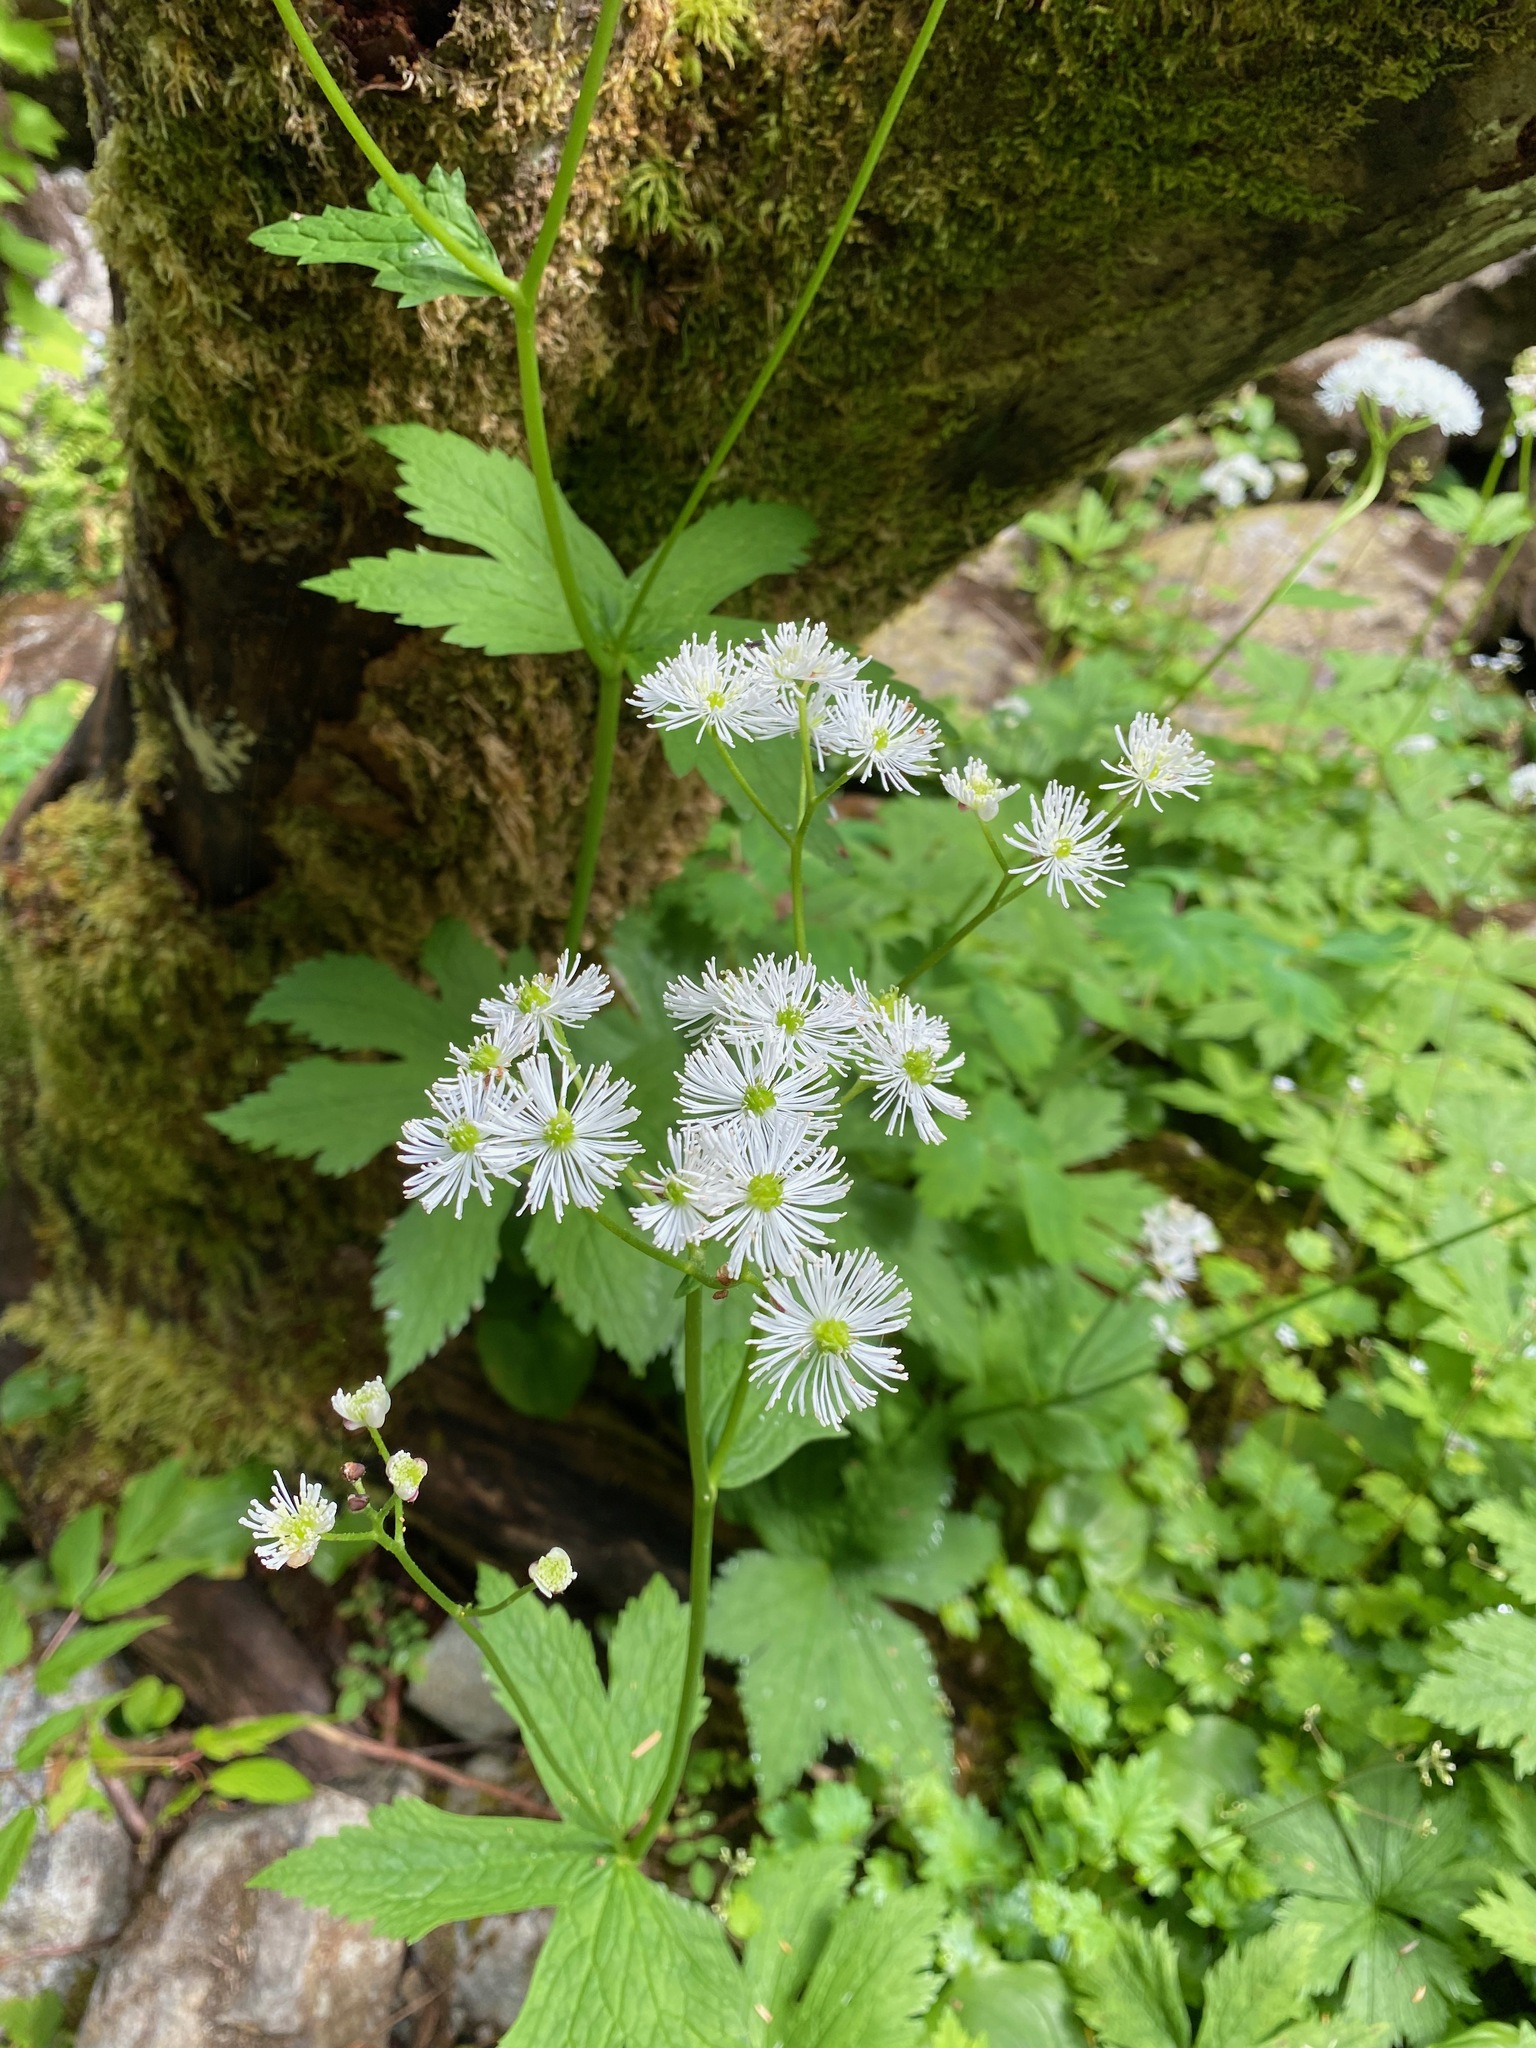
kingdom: Plantae
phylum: Tracheophyta
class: Magnoliopsida
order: Ranunculales
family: Ranunculaceae
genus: Trautvetteria
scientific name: Trautvetteria carolinensis
